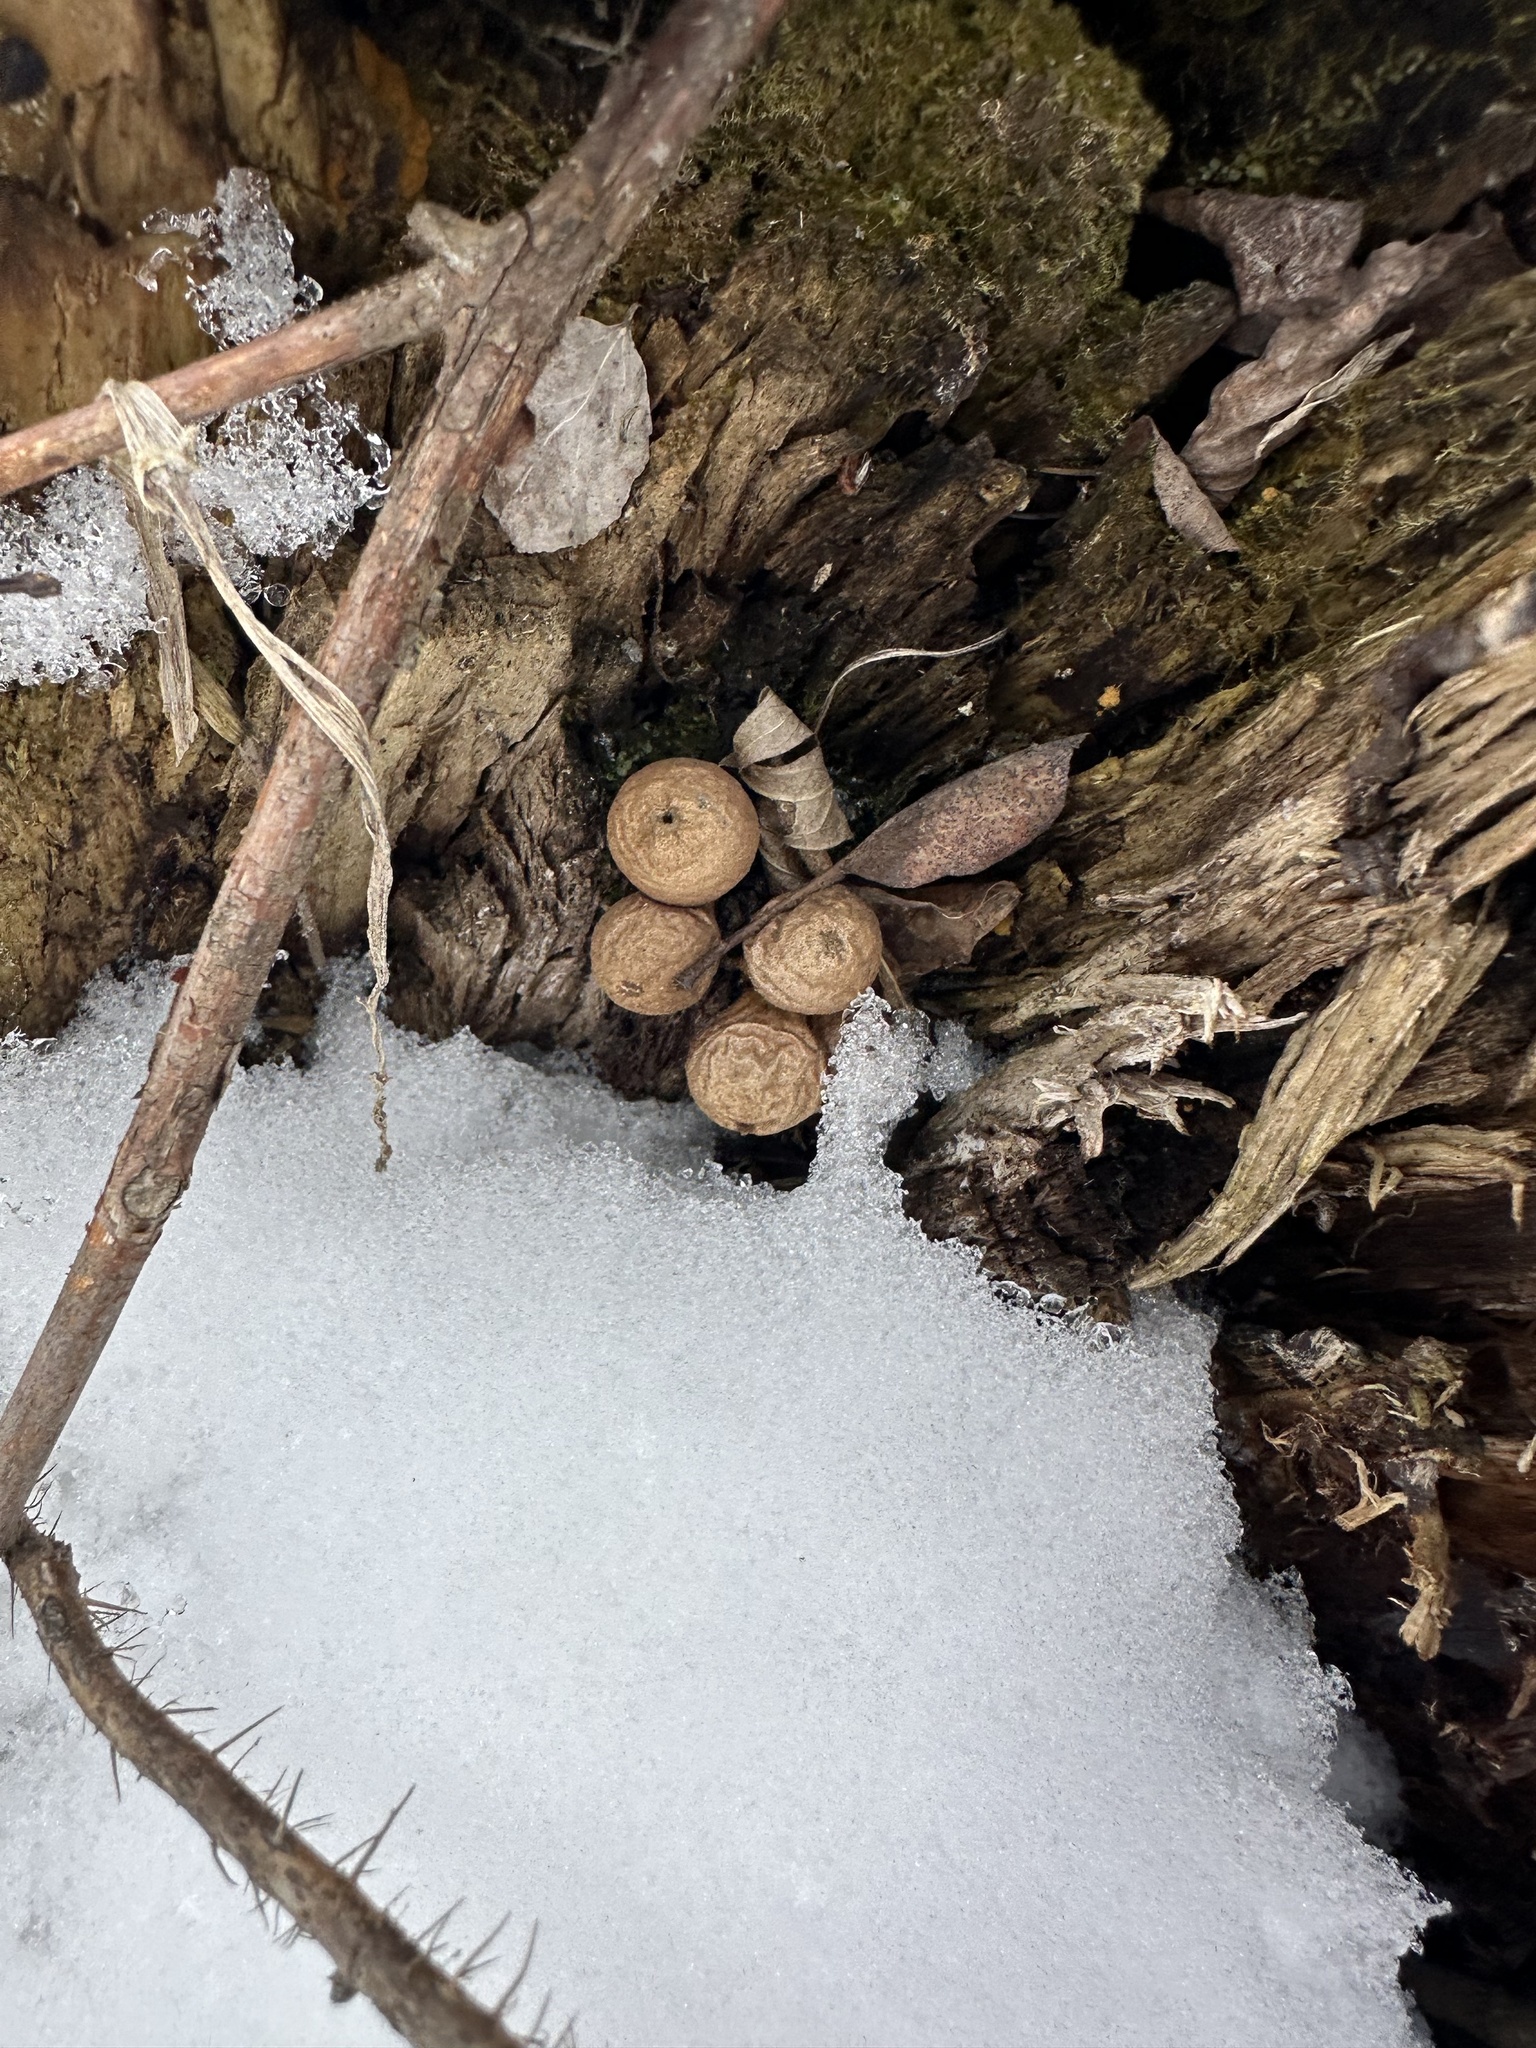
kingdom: Fungi
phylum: Basidiomycota
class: Agaricomycetes
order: Agaricales
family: Lycoperdaceae
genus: Apioperdon
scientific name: Apioperdon pyriforme
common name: Pear-shaped puffball
